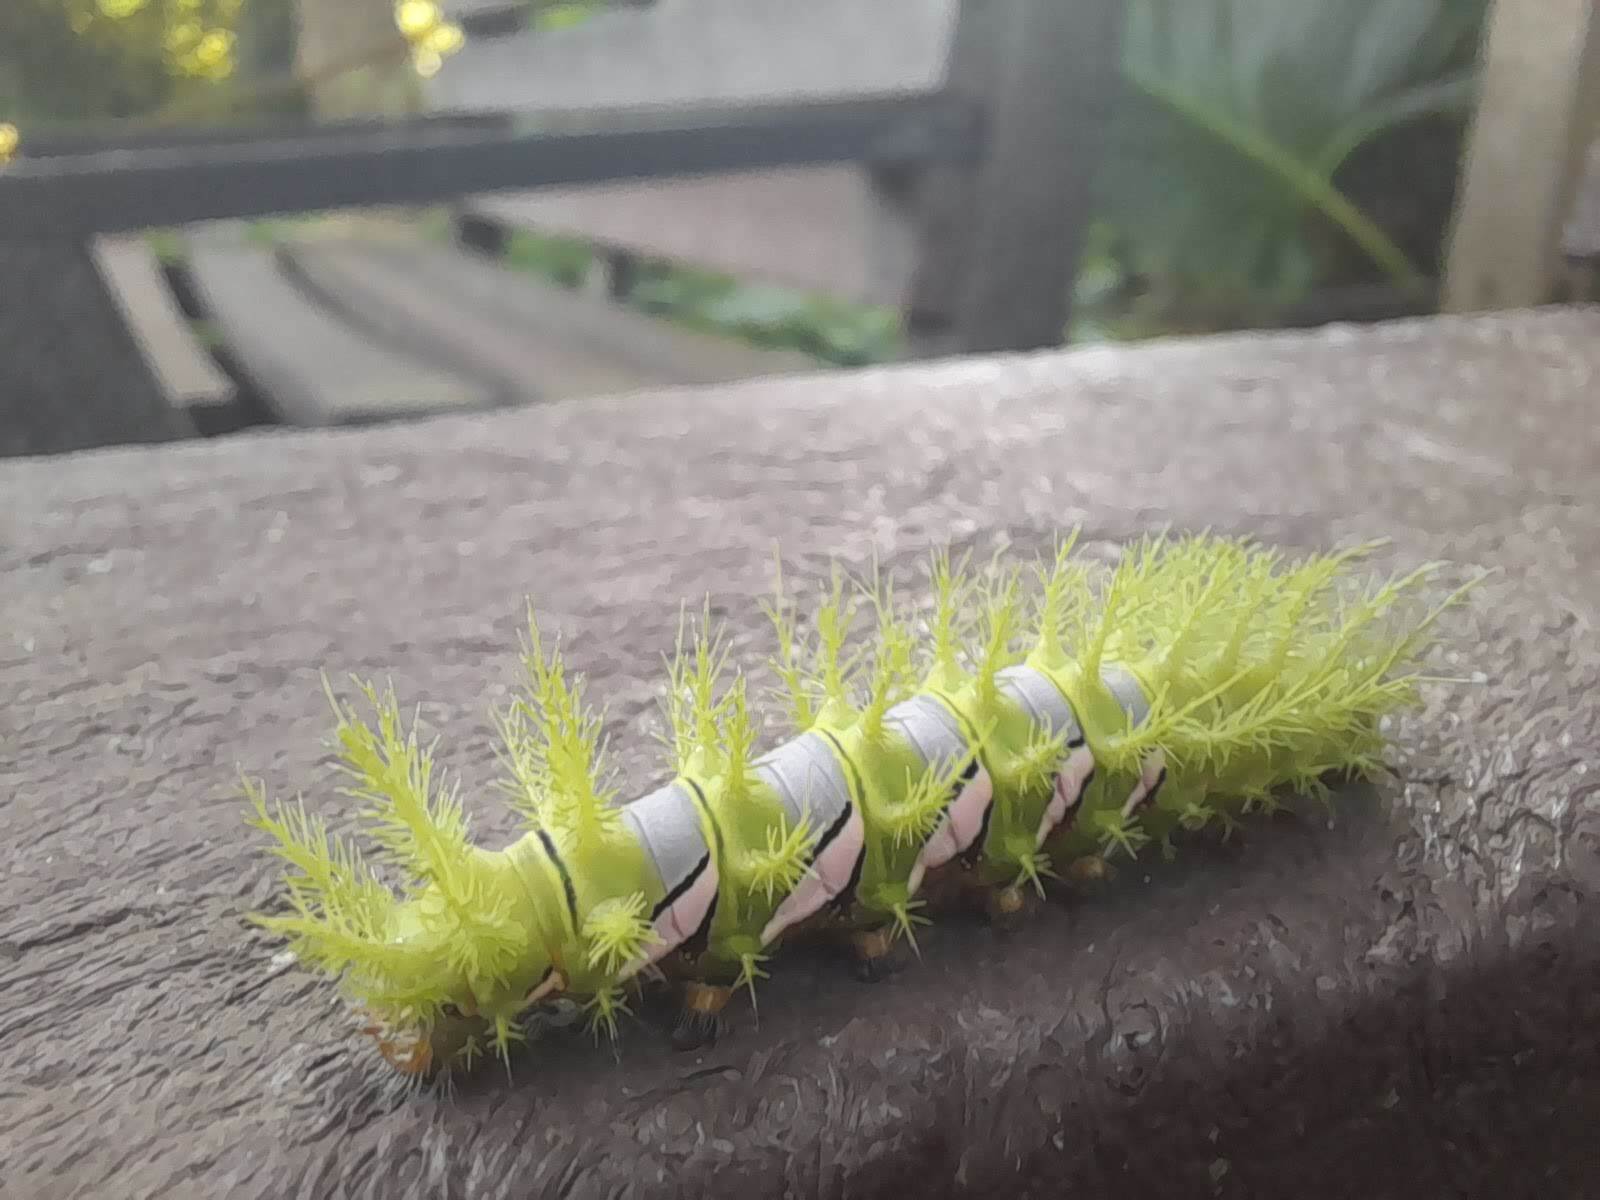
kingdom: Animalia
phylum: Arthropoda
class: Insecta
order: Lepidoptera
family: Saturniidae
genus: Automeris
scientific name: Automeris naranja
